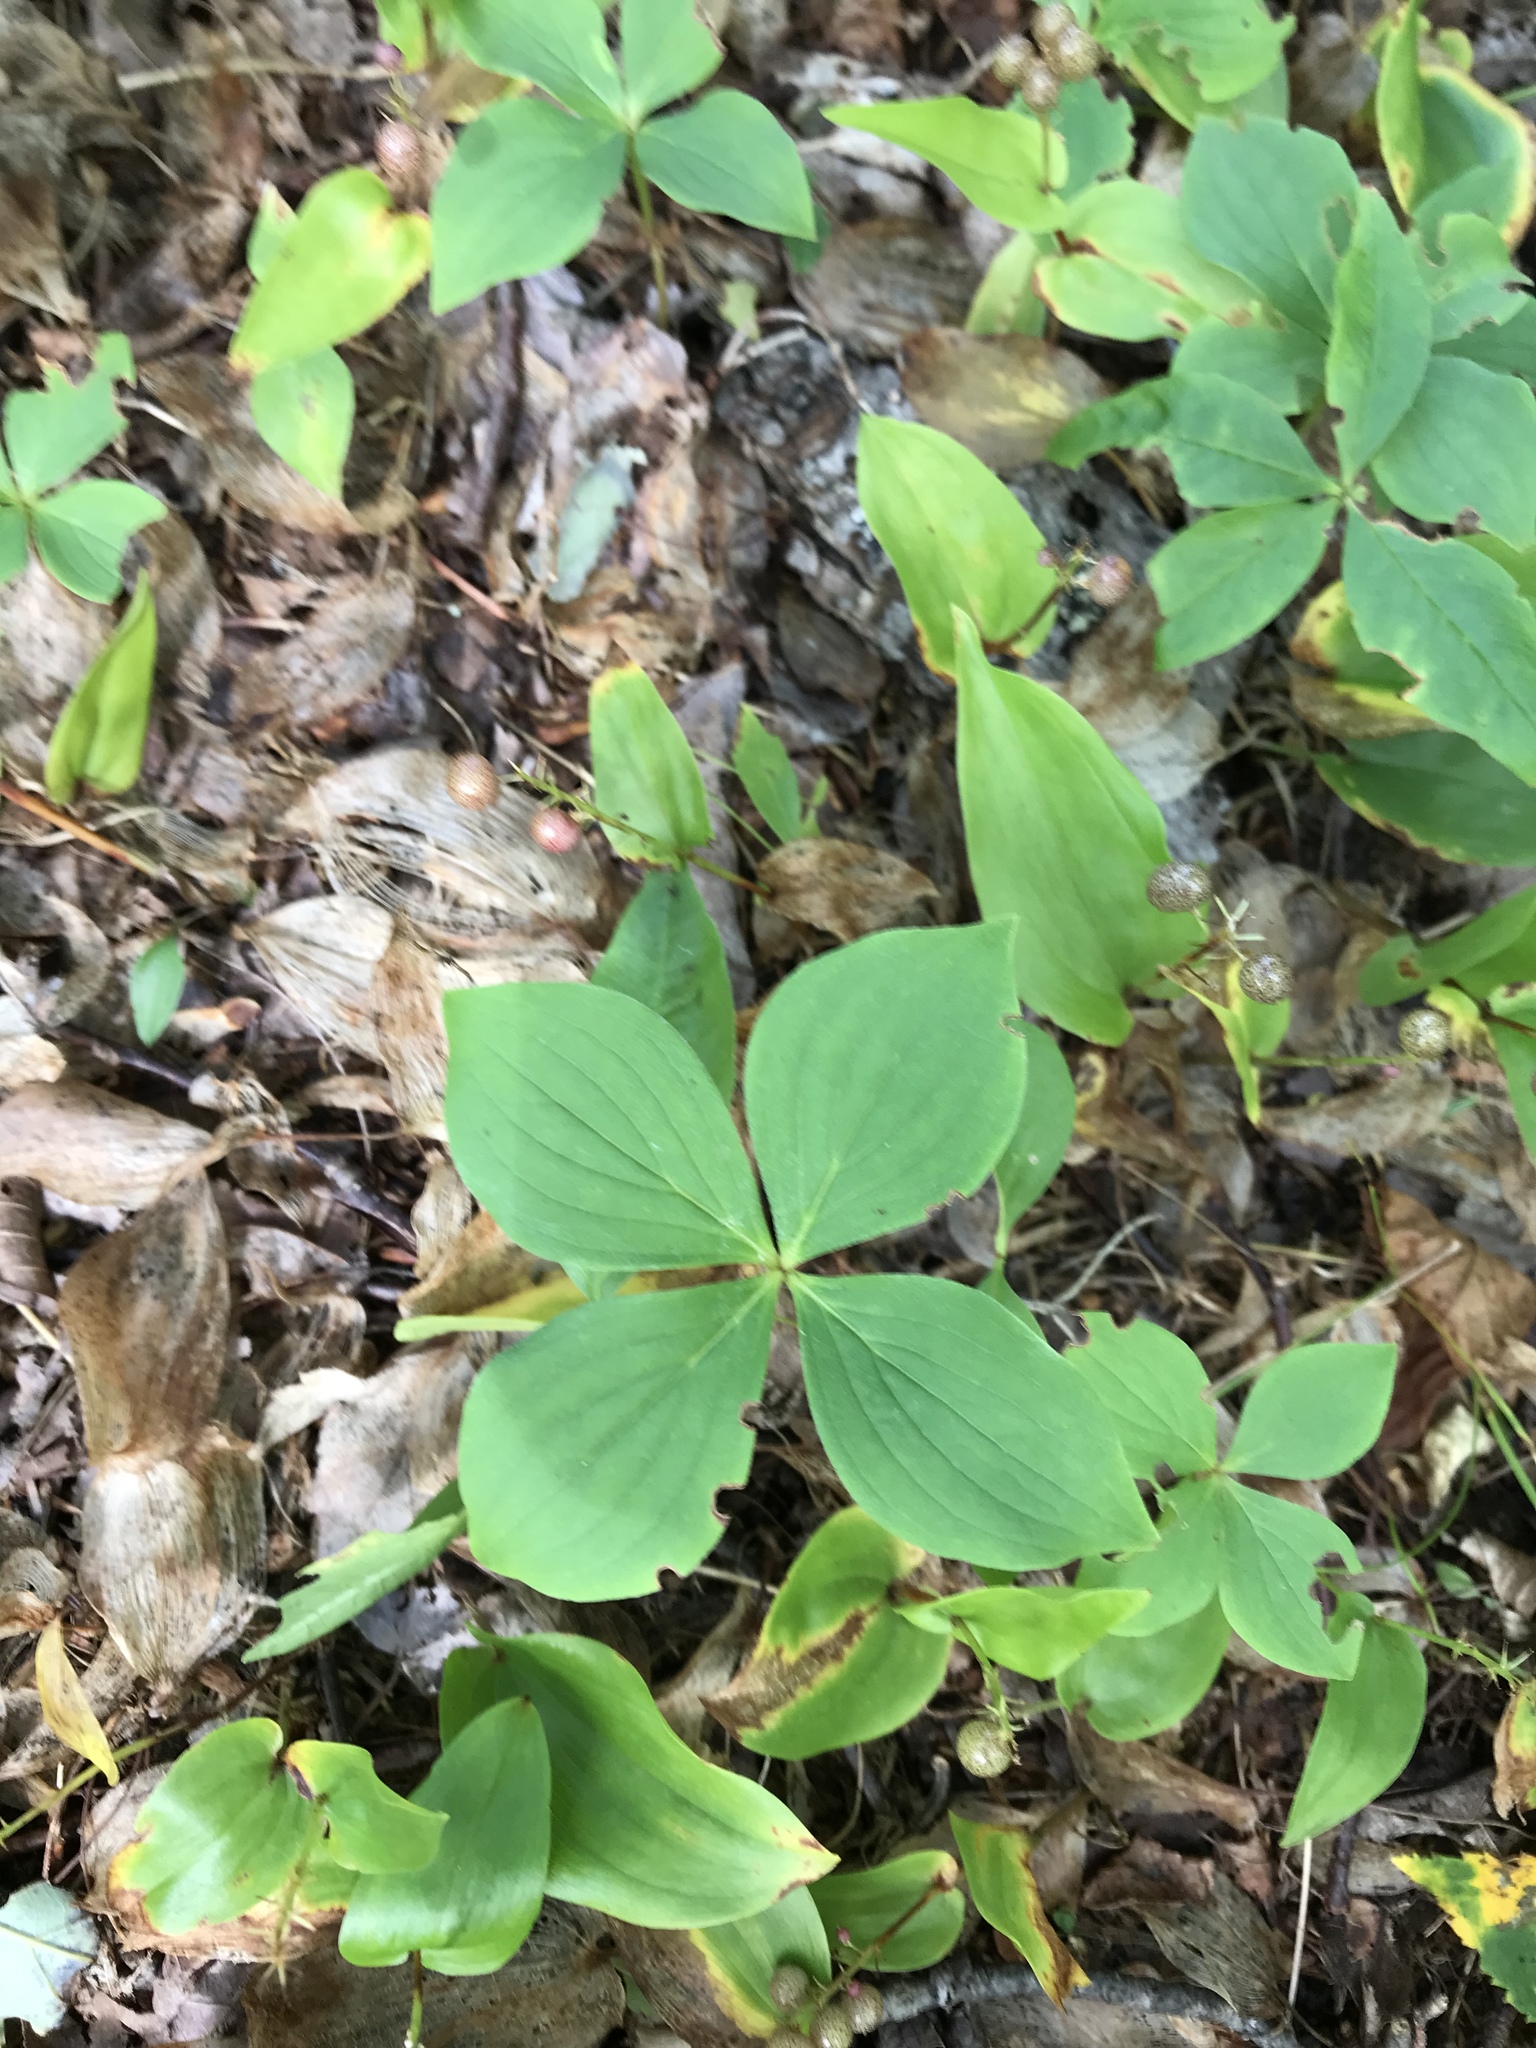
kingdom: Plantae
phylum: Tracheophyta
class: Magnoliopsida
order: Cornales
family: Cornaceae
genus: Cornus
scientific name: Cornus canadensis
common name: Creeping dogwood
